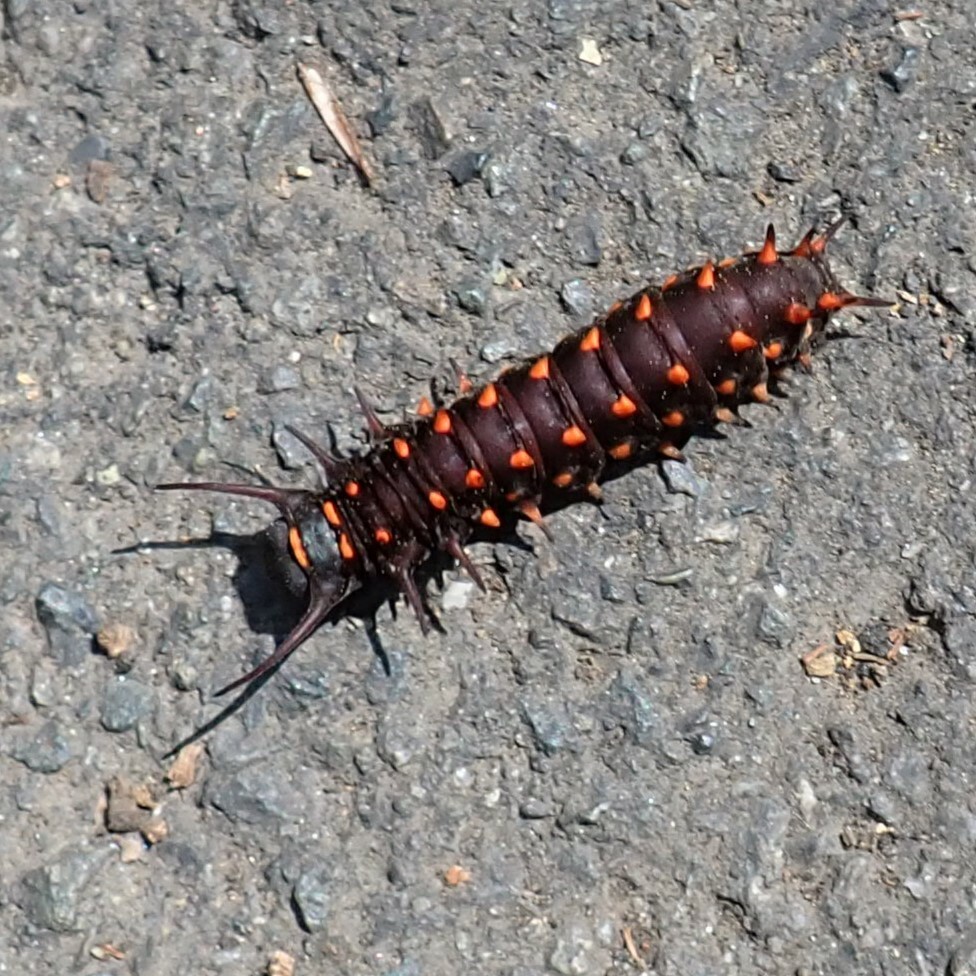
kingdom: Animalia
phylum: Arthropoda
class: Insecta
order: Lepidoptera
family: Papilionidae
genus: Battus
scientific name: Battus philenor
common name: Pipevine swallowtail
